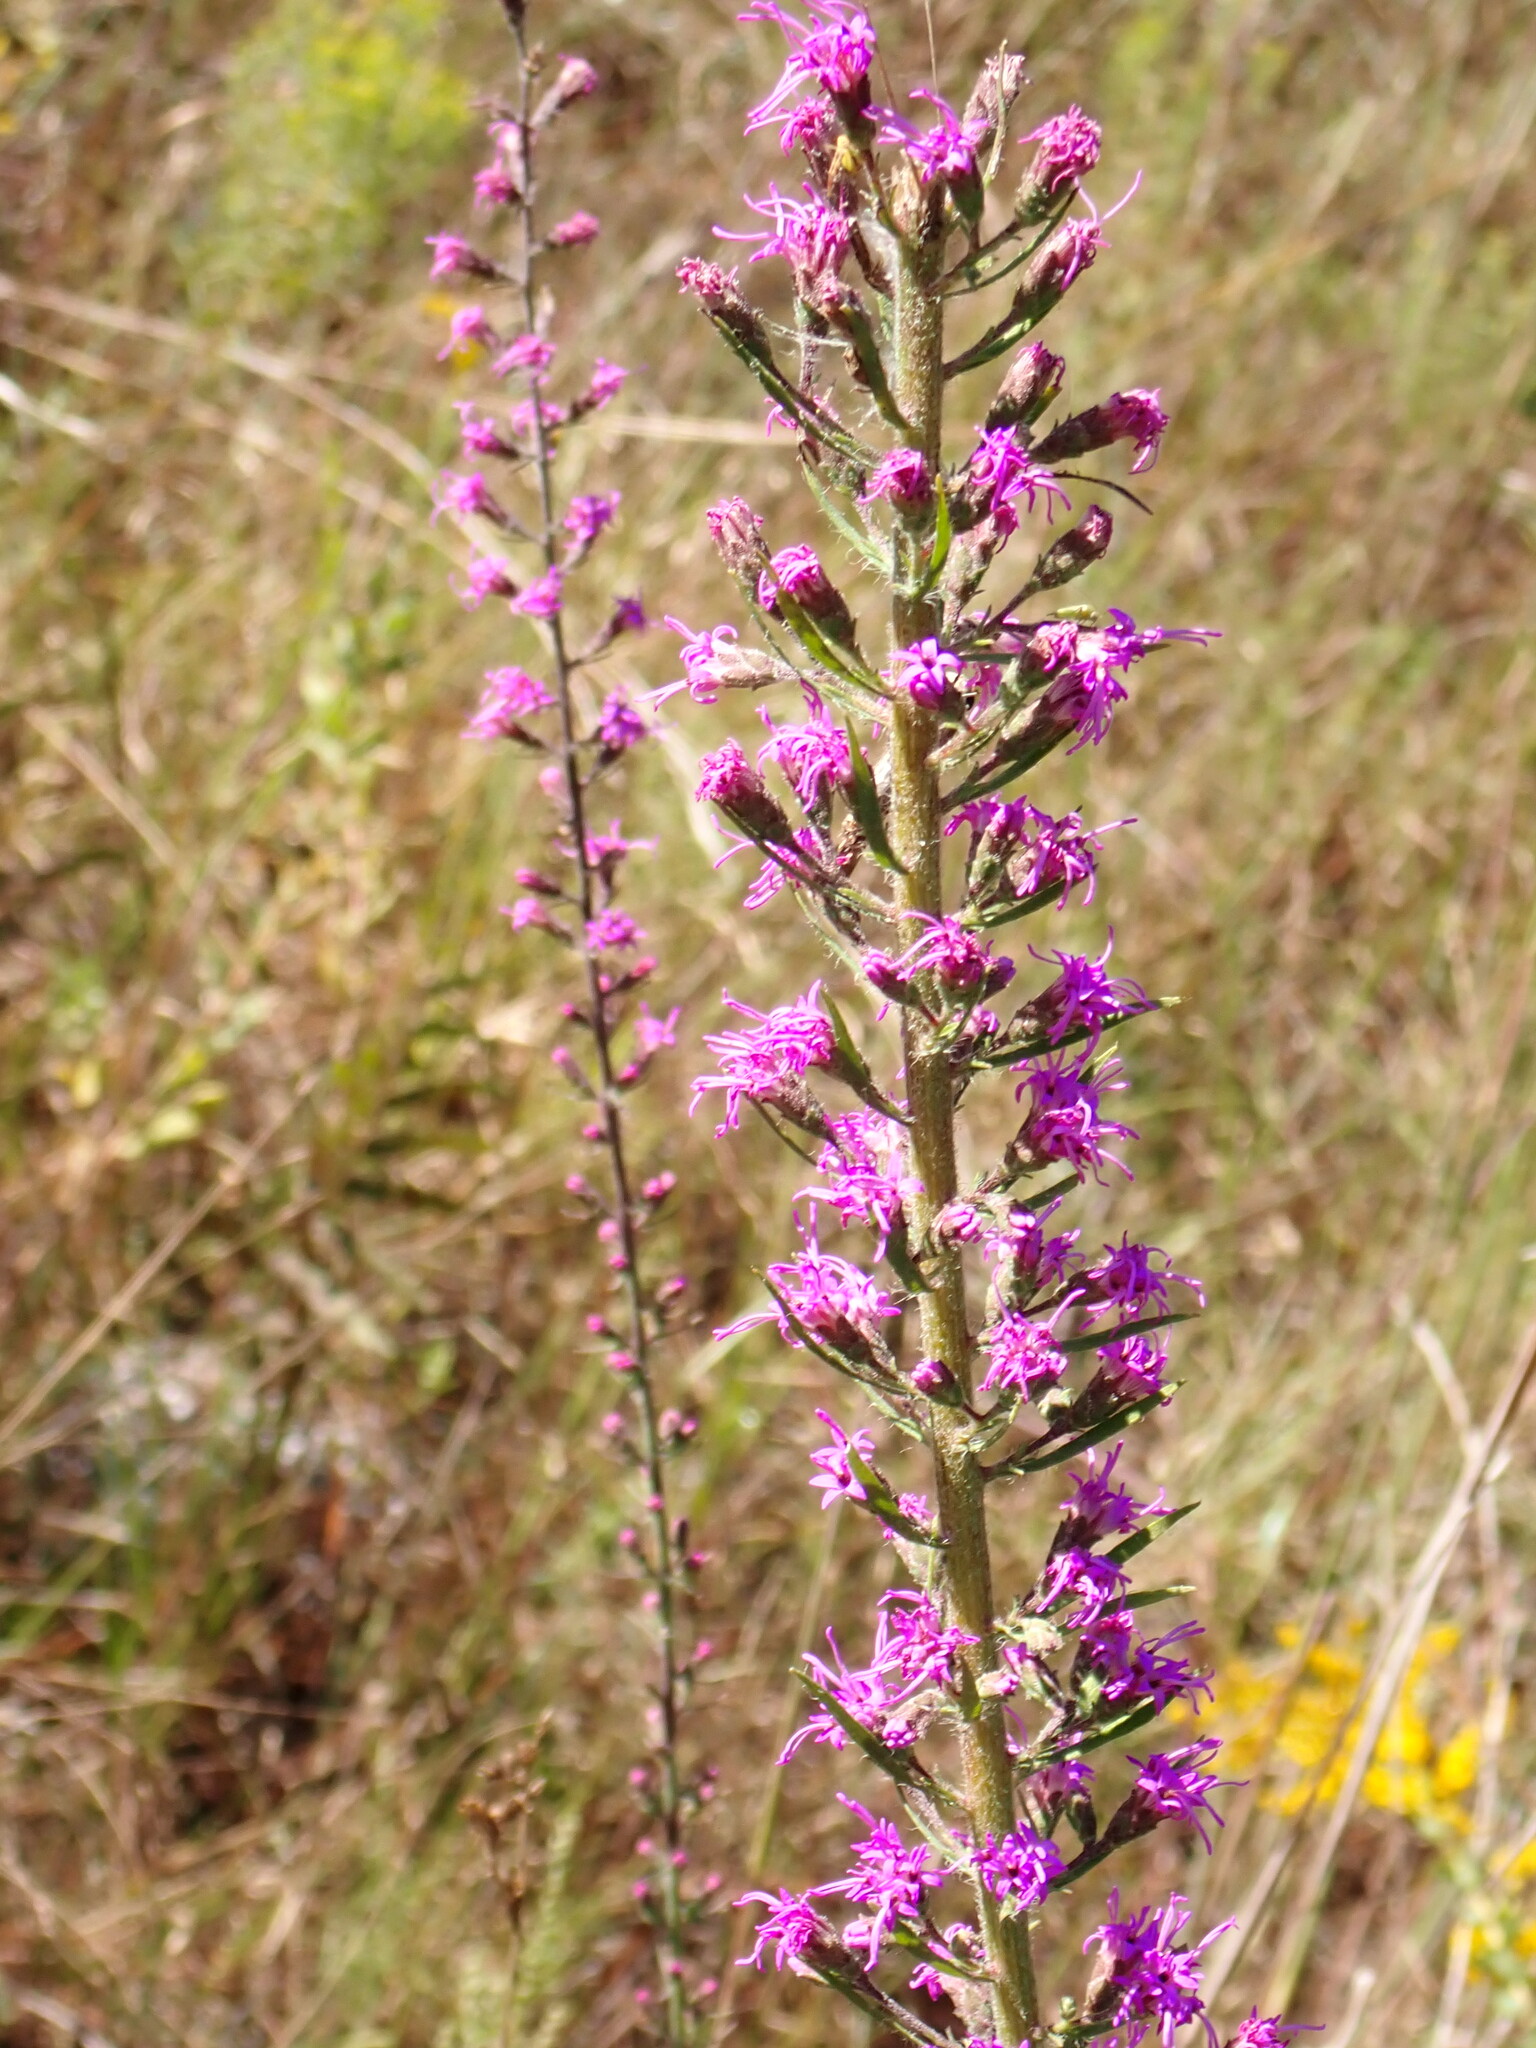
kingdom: Plantae
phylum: Tracheophyta
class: Magnoliopsida
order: Asterales
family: Asteraceae
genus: Liatris
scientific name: Liatris gracilis
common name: Slender gayfeather
